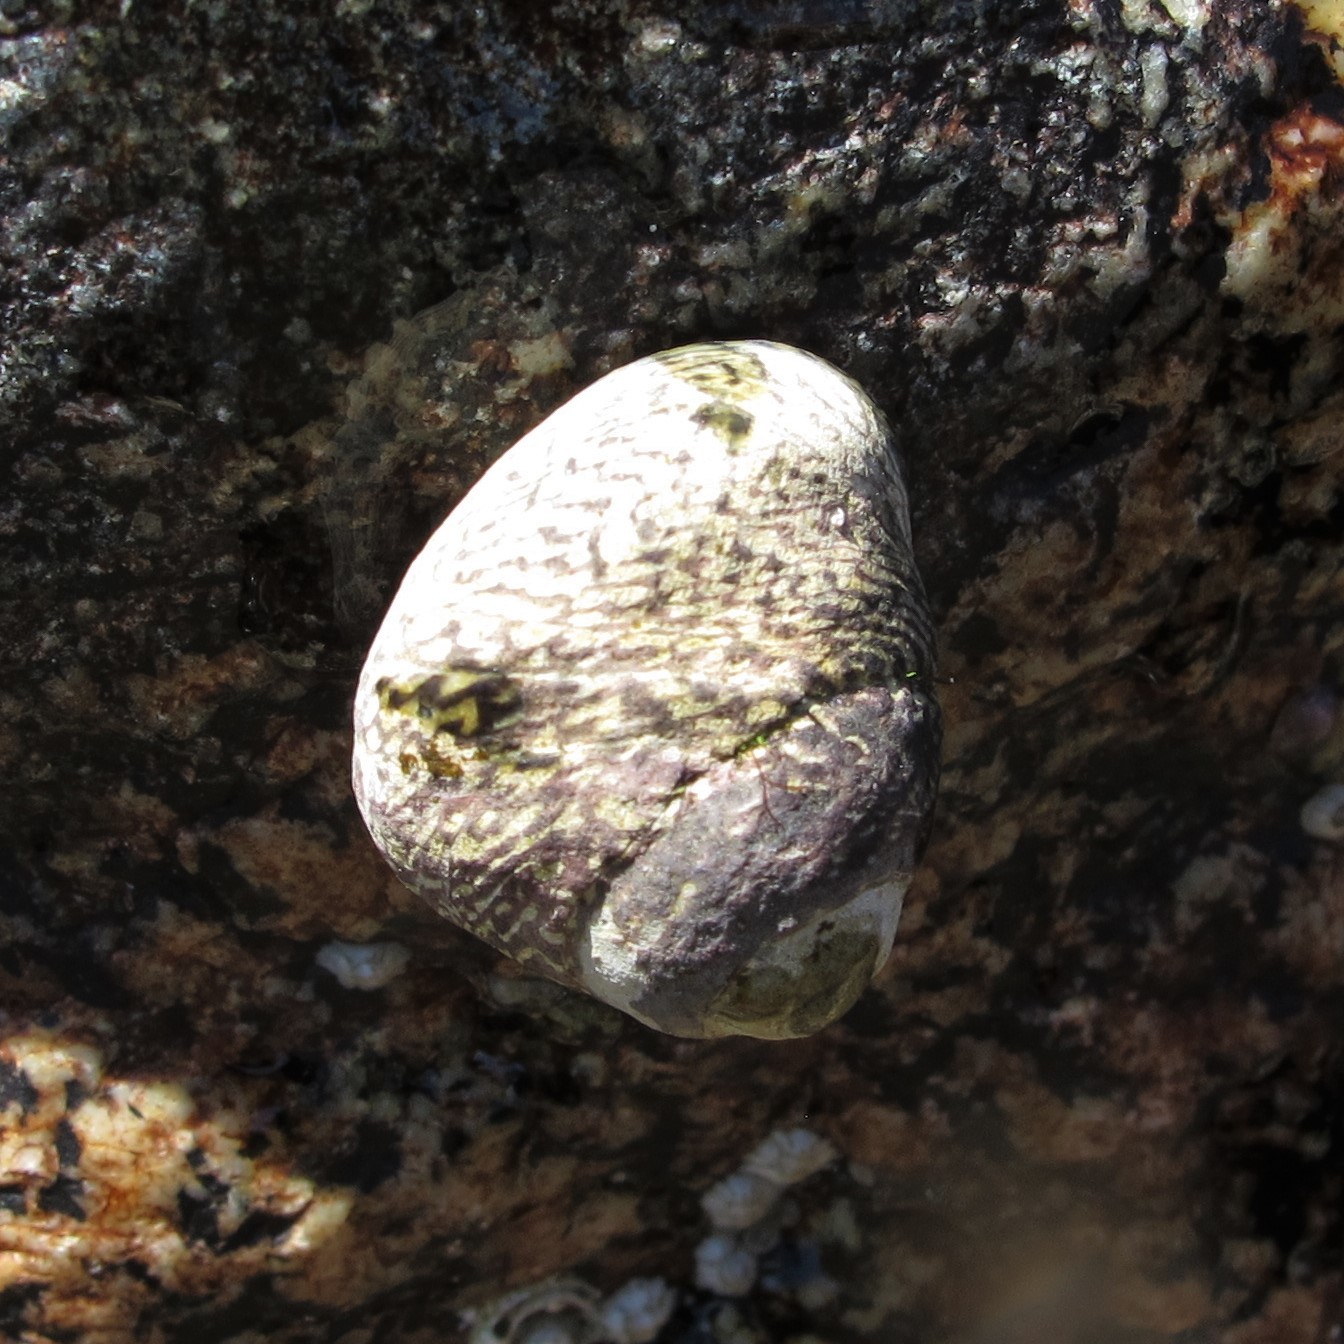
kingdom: Animalia
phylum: Mollusca
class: Gastropoda
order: Trochida
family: Trochidae
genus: Phorcus
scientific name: Phorcus lineatus
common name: Toothed top shell
